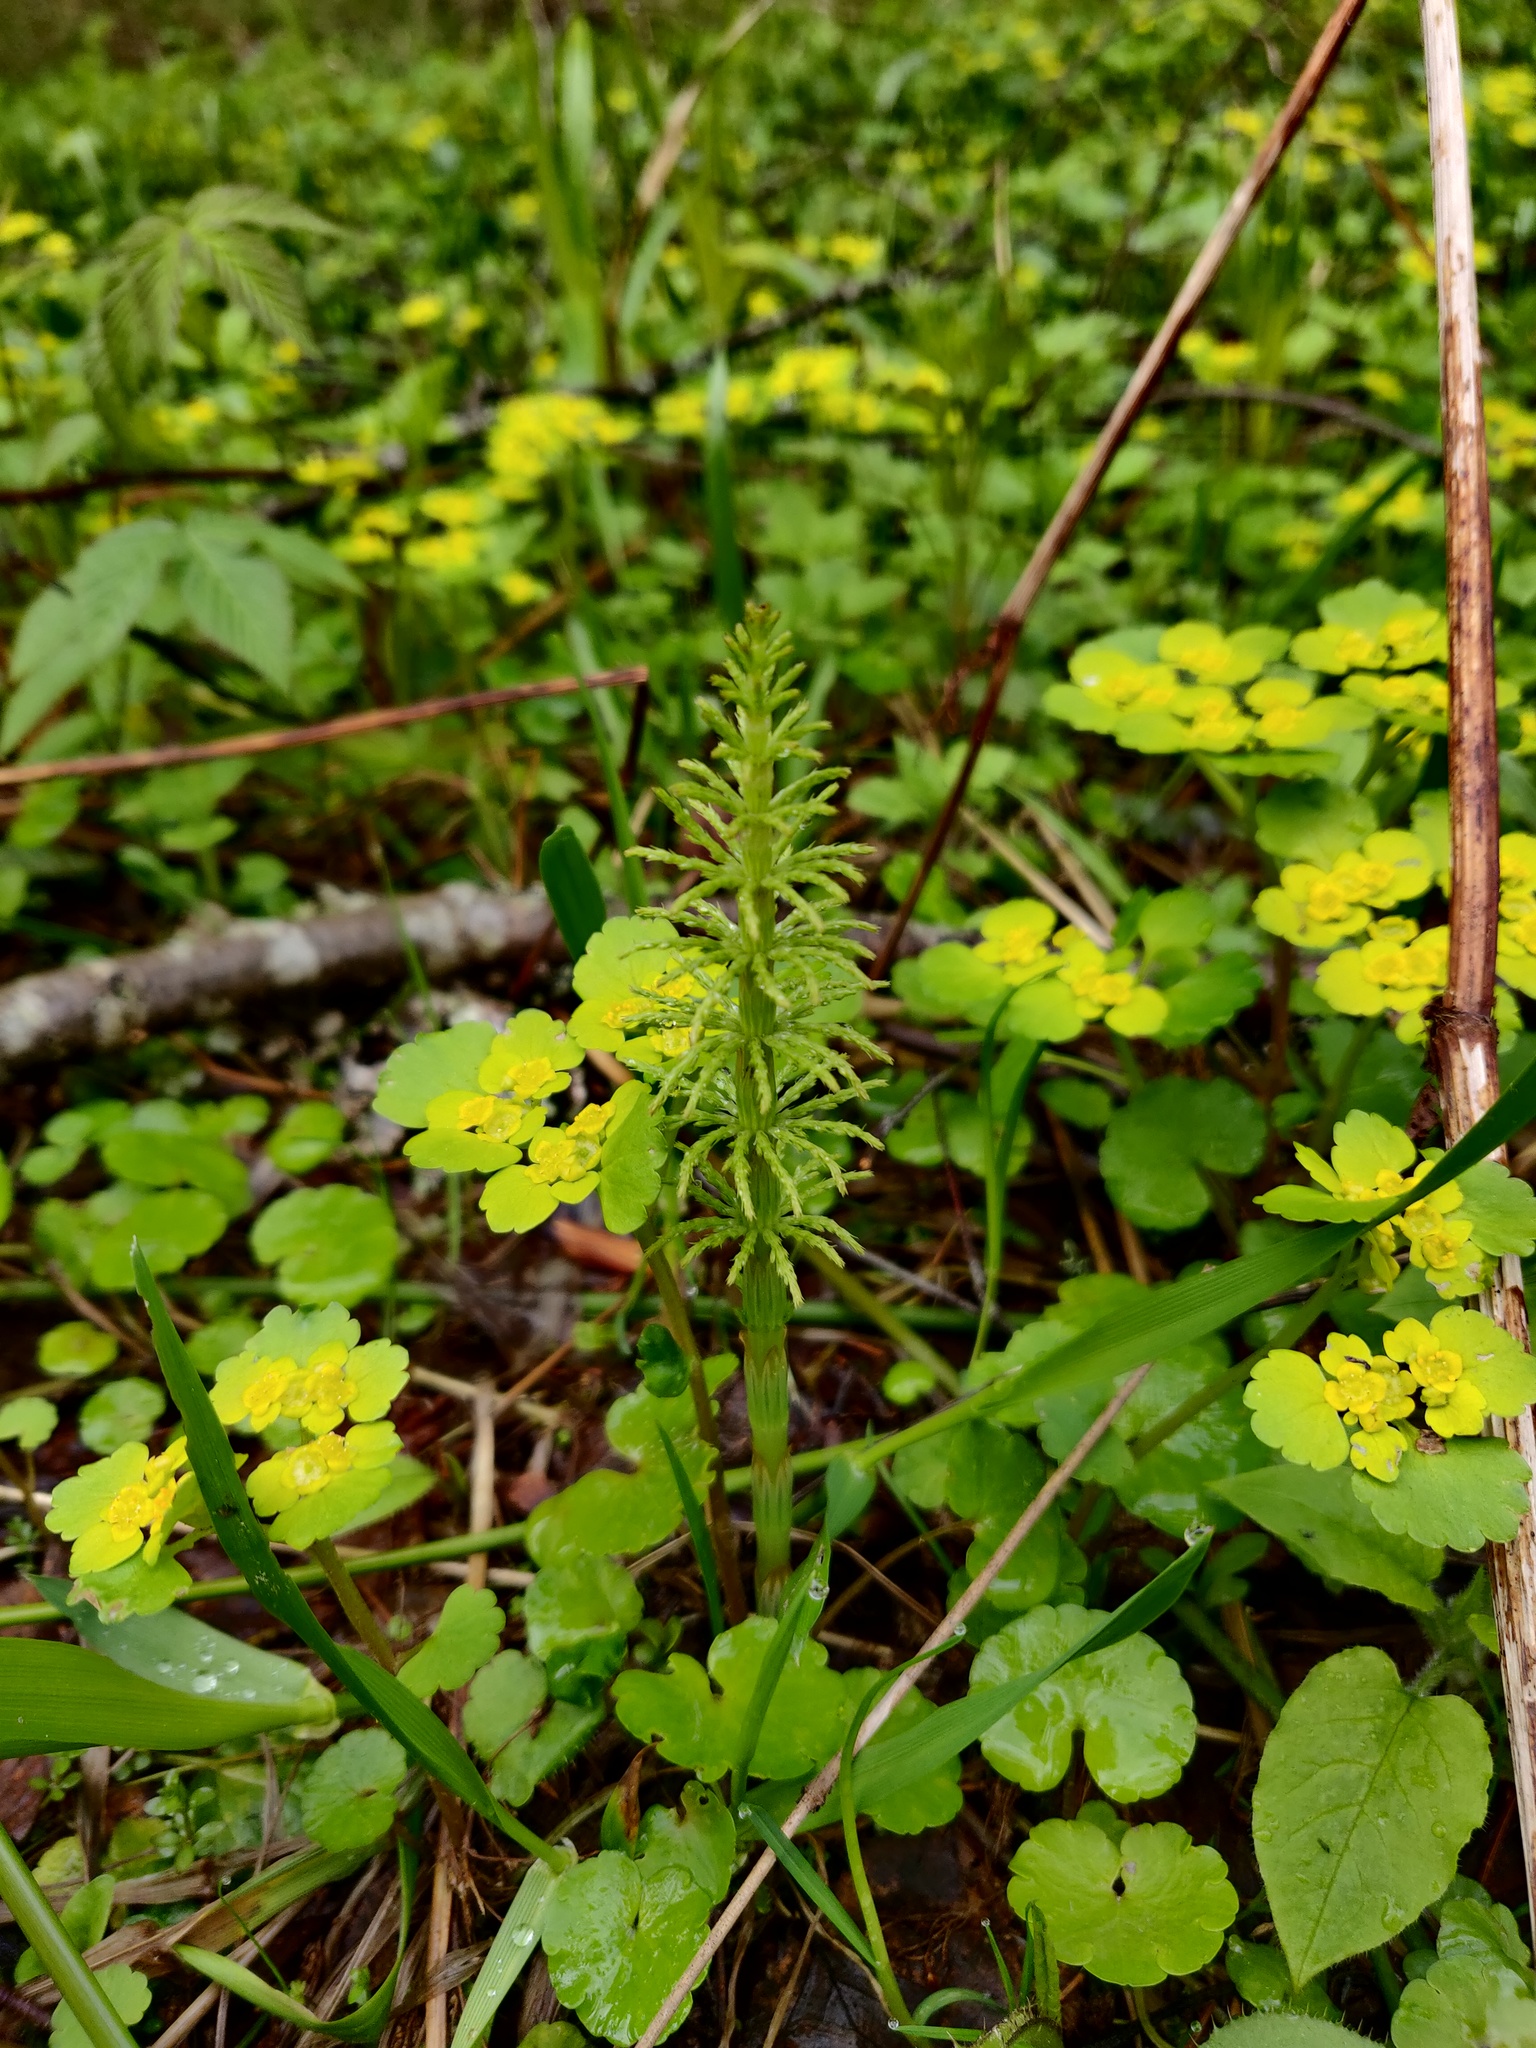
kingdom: Plantae
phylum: Tracheophyta
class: Polypodiopsida
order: Equisetales
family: Equisetaceae
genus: Equisetum
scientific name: Equisetum sylvaticum
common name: Wood horsetail
